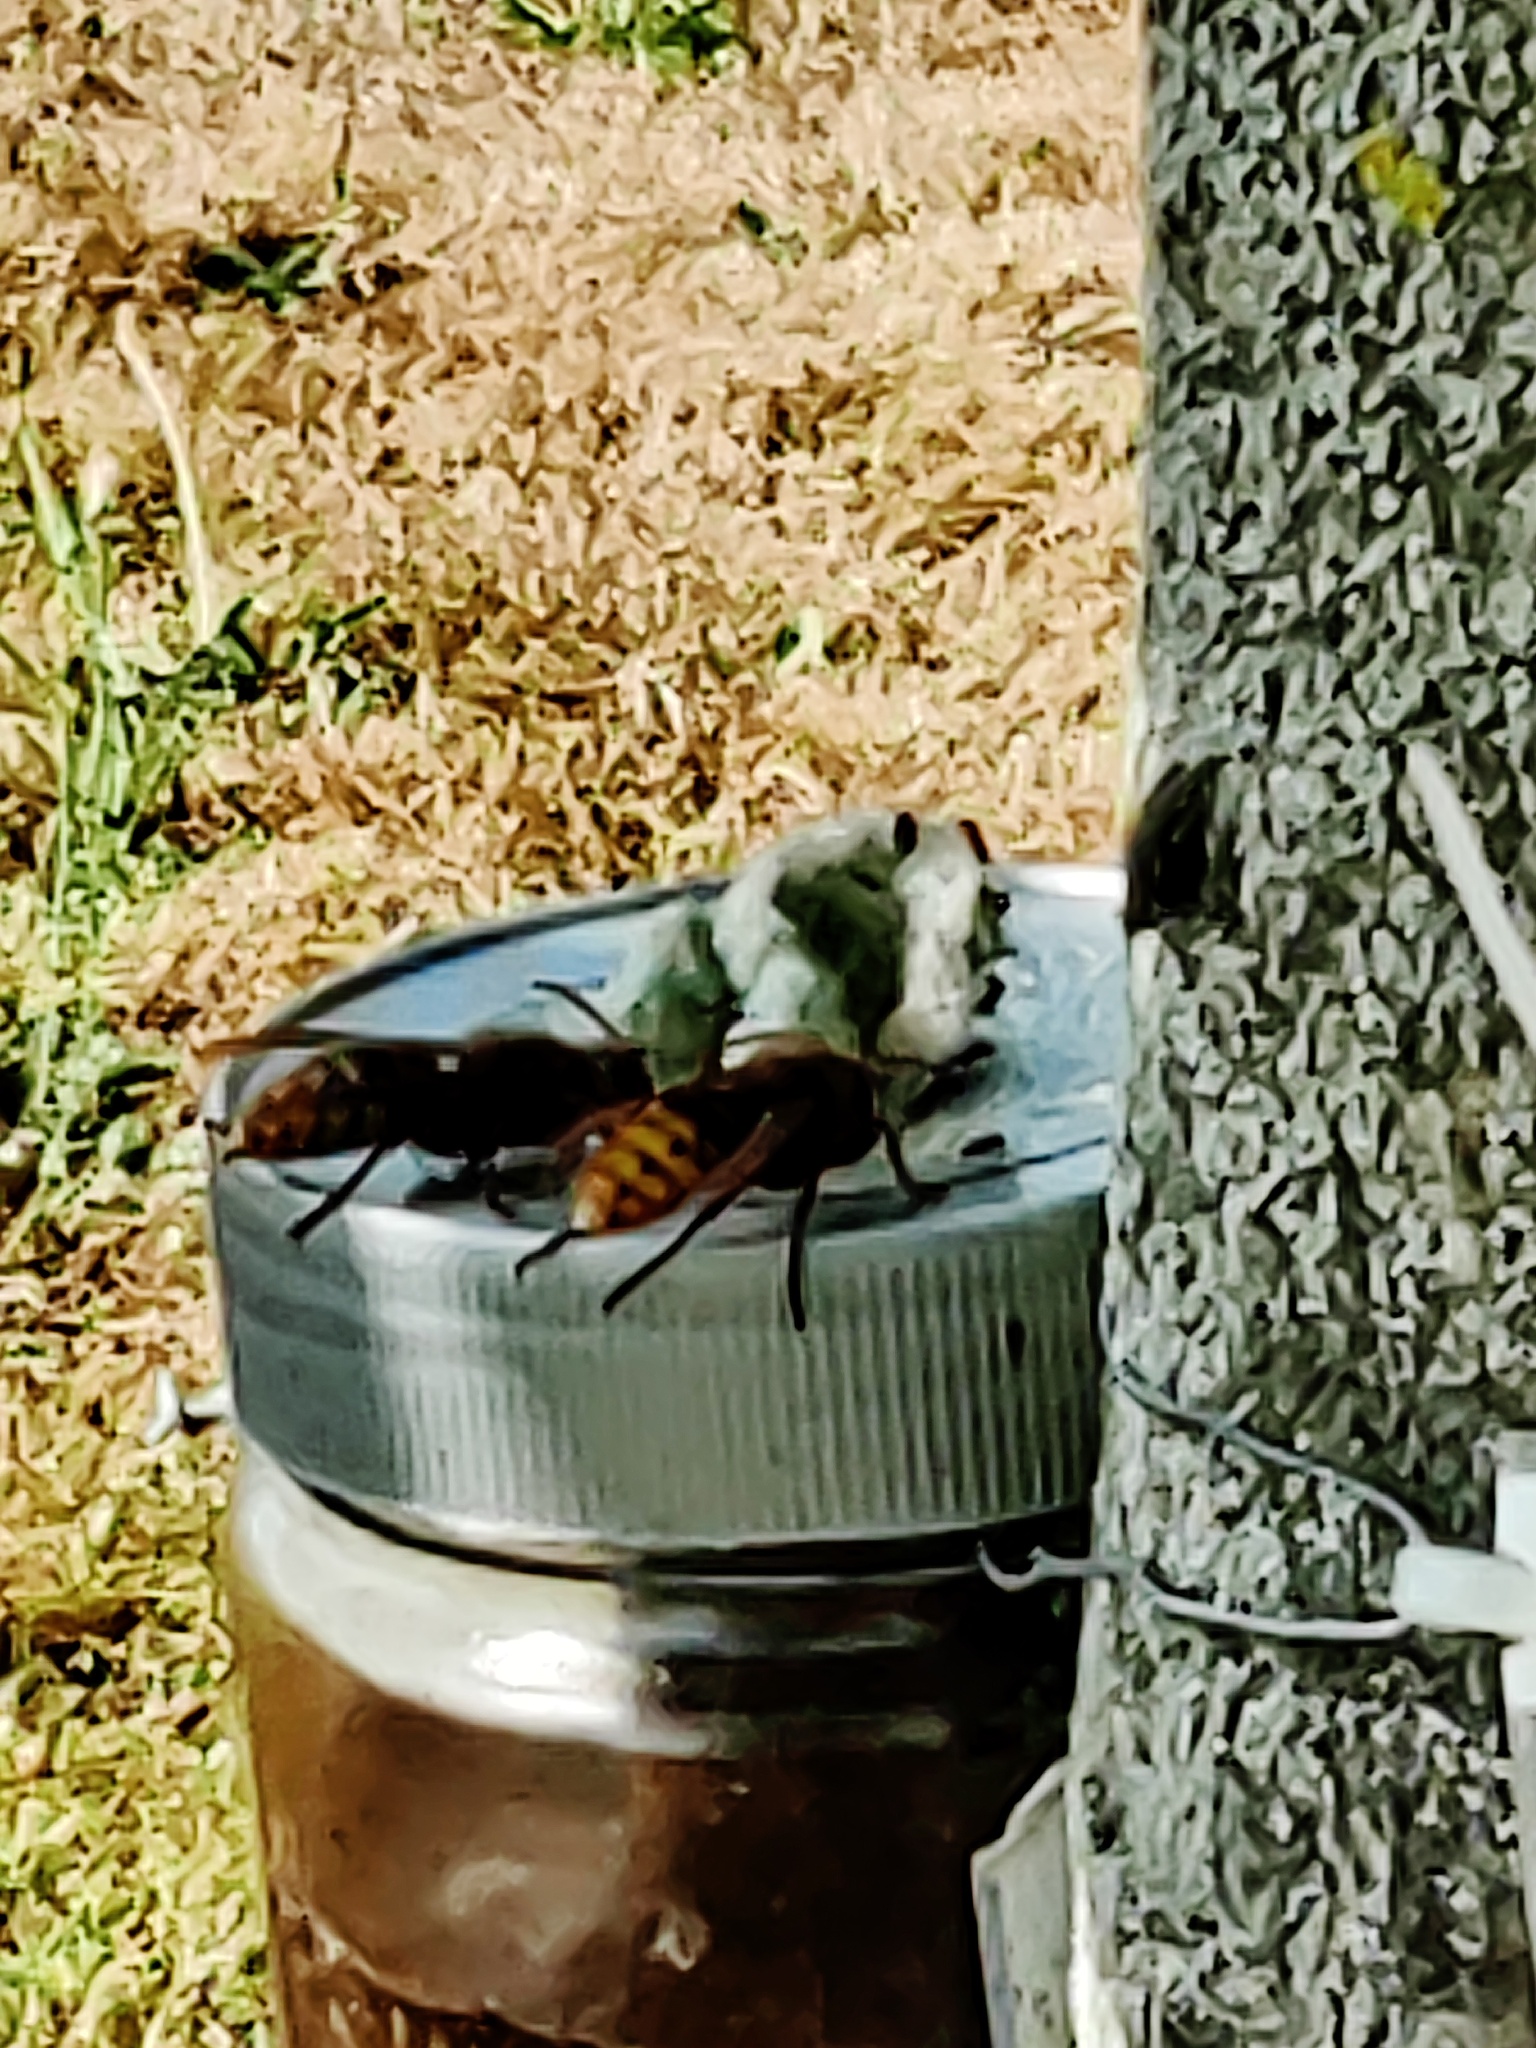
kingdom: Animalia
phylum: Arthropoda
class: Insecta
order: Hymenoptera
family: Vespidae
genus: Vespa
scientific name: Vespa crabro
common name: Hornet
